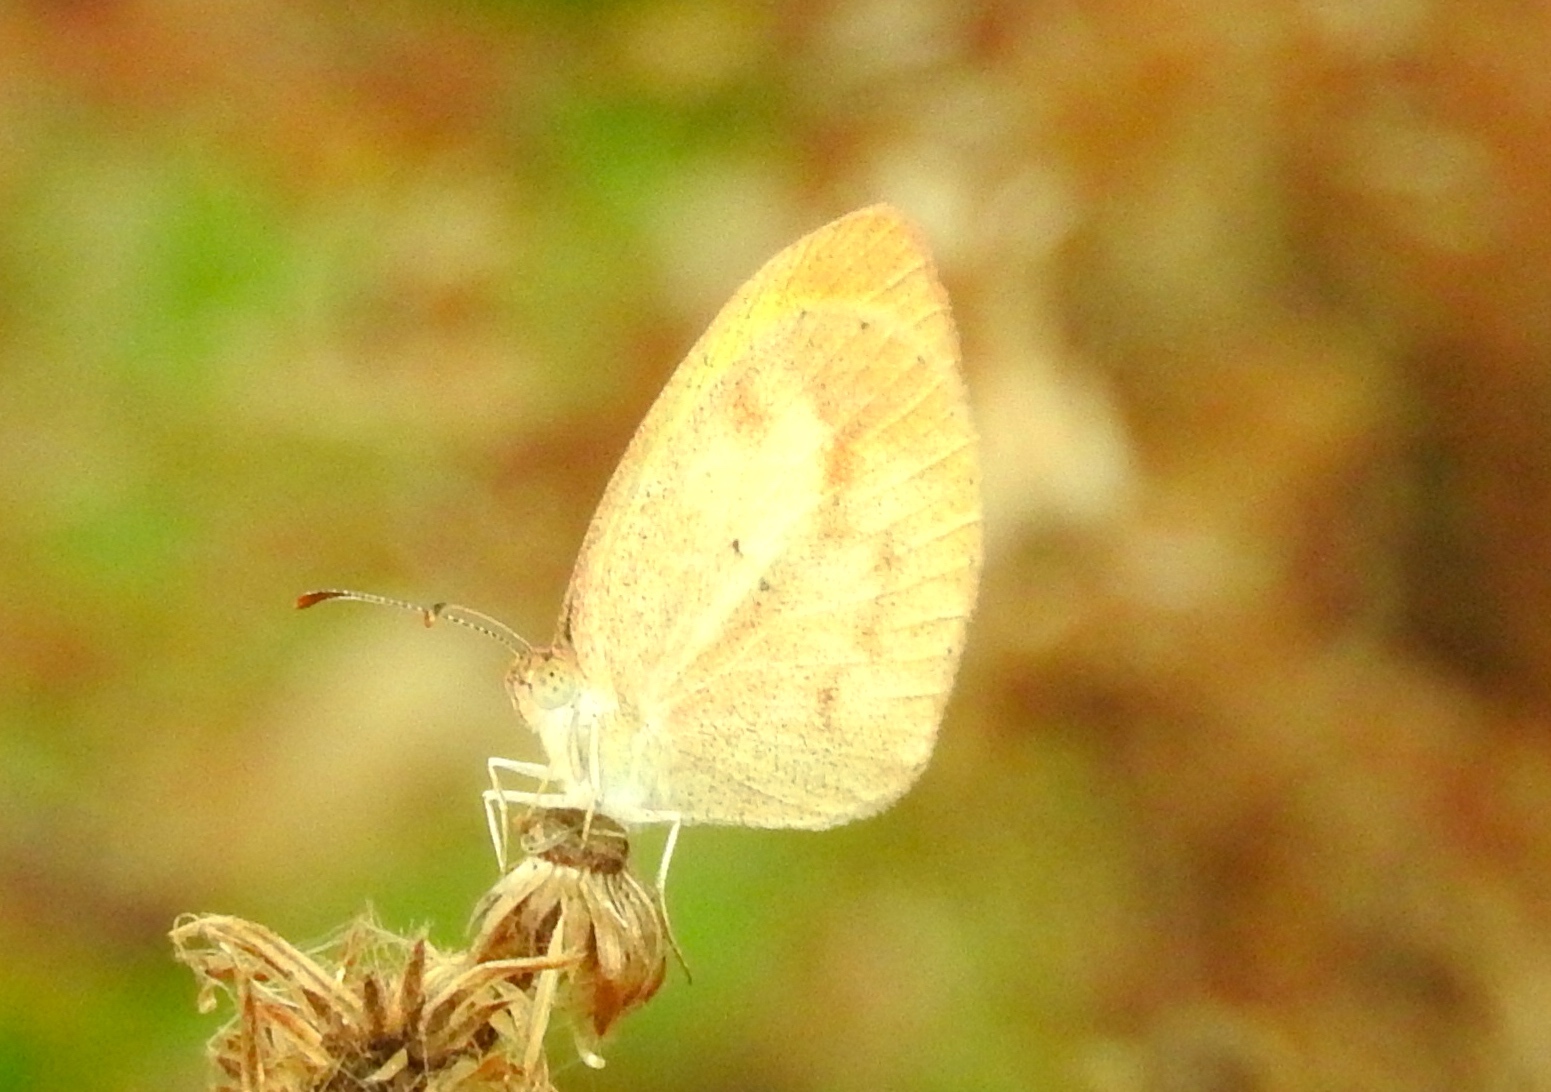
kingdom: Animalia
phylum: Arthropoda
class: Insecta
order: Lepidoptera
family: Pieridae
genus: Eurema
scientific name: Eurema daira
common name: Barred sulphur
